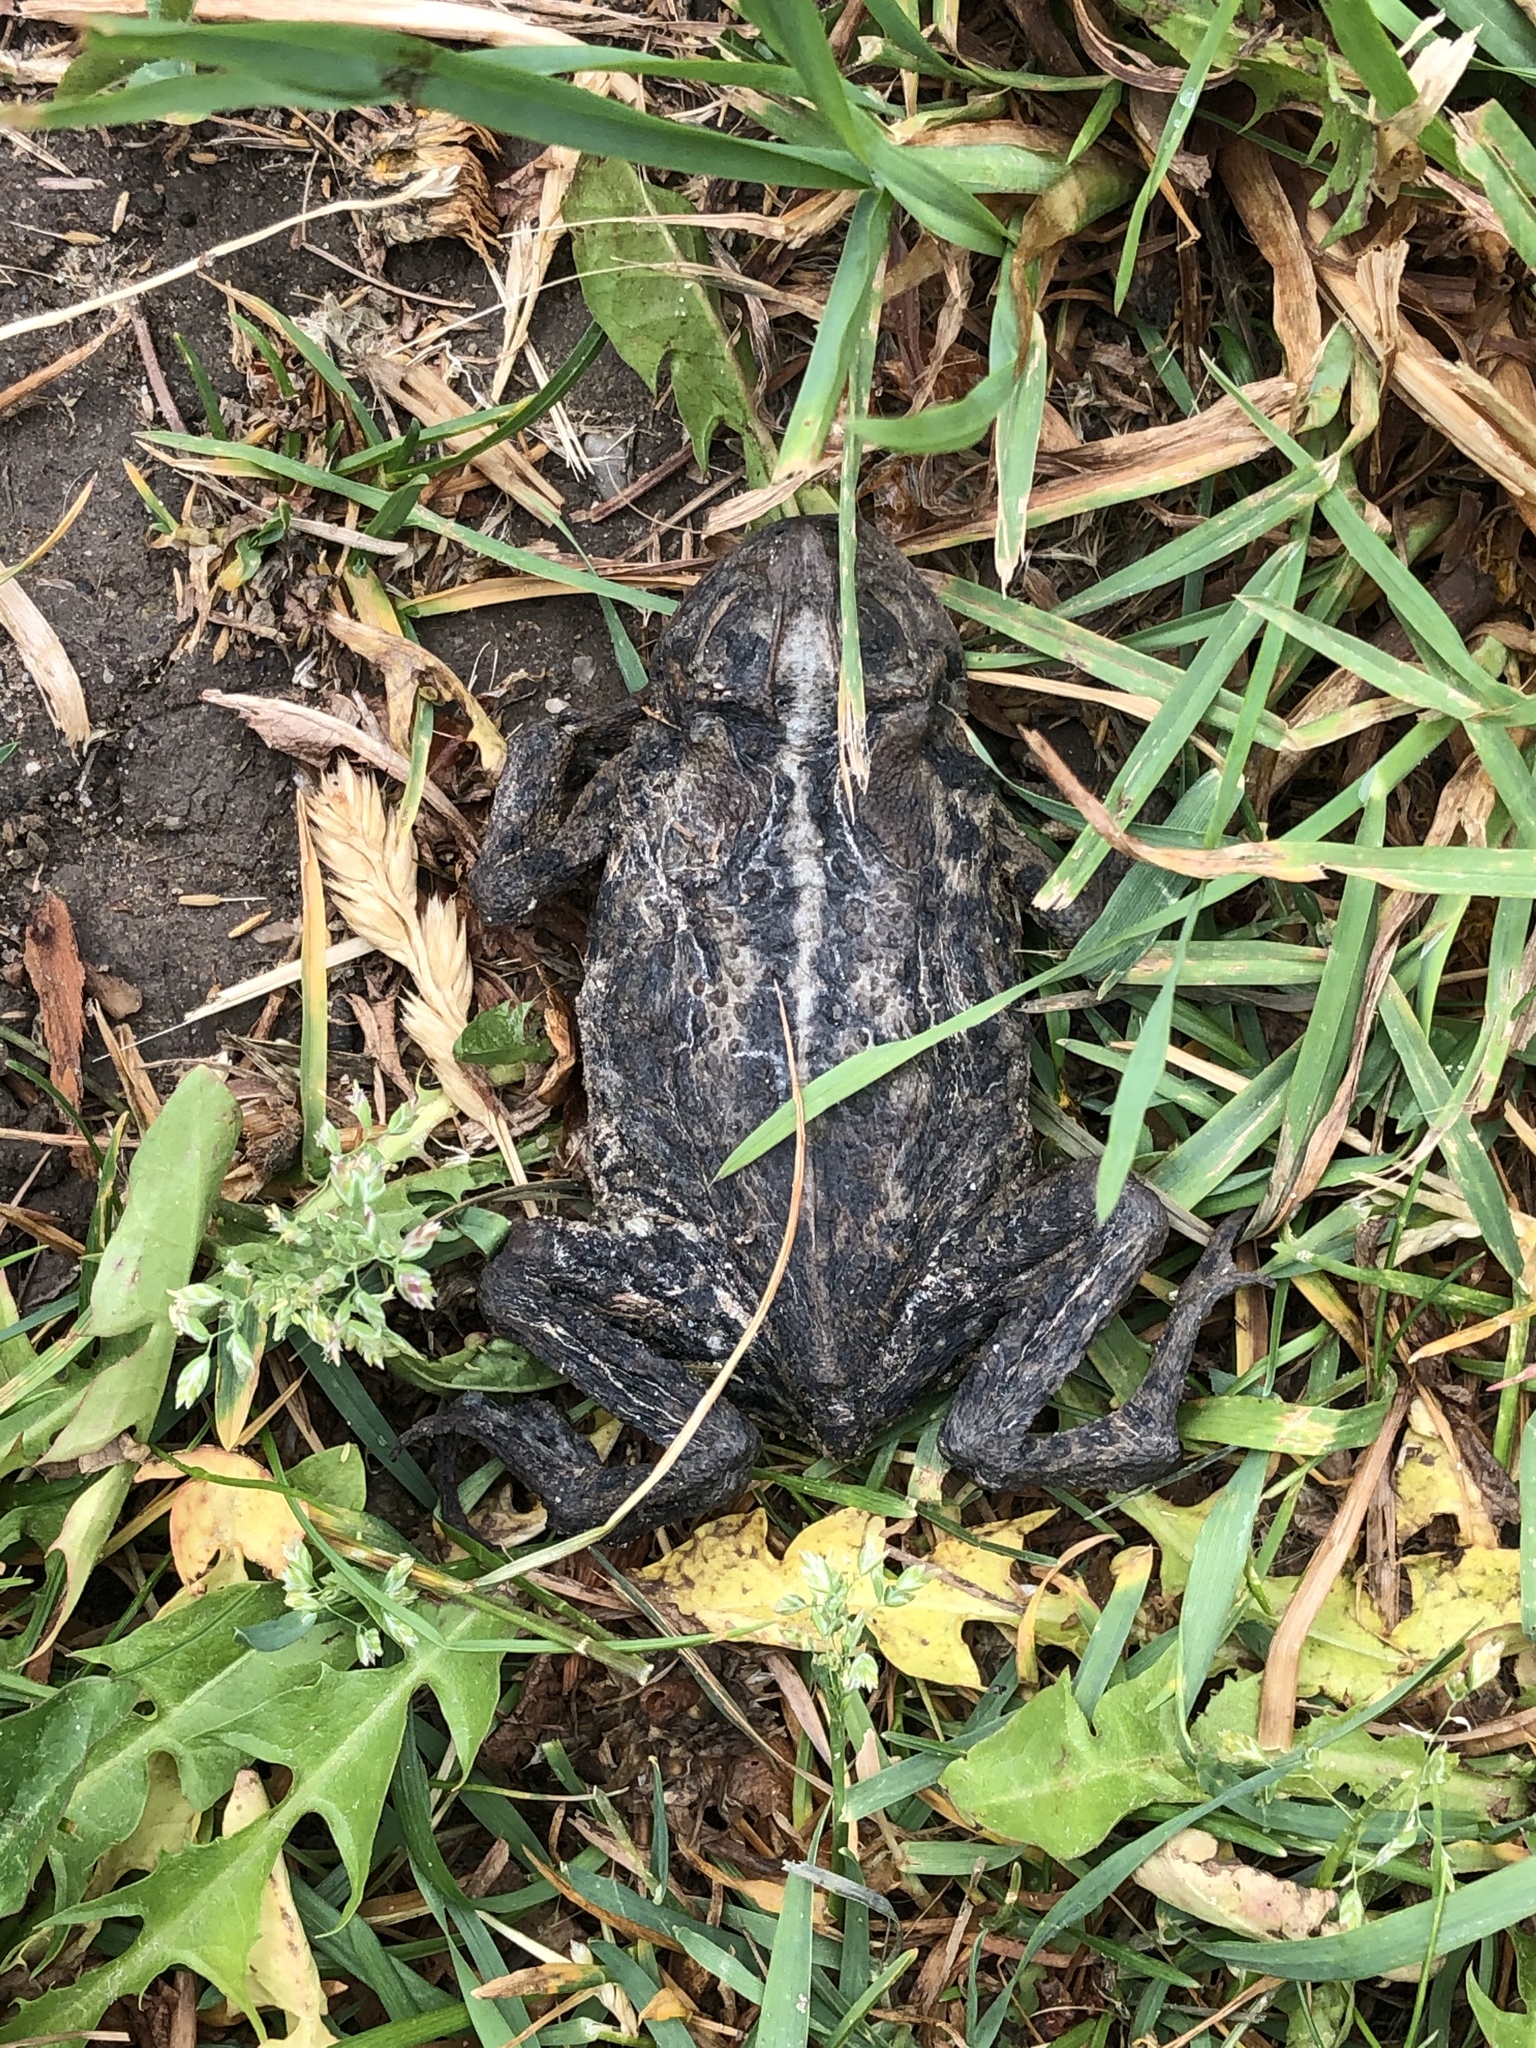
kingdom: Animalia
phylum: Chordata
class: Amphibia
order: Anura
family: Bufonidae
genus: Anaxyrus
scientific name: Anaxyrus americanus
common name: American toad
